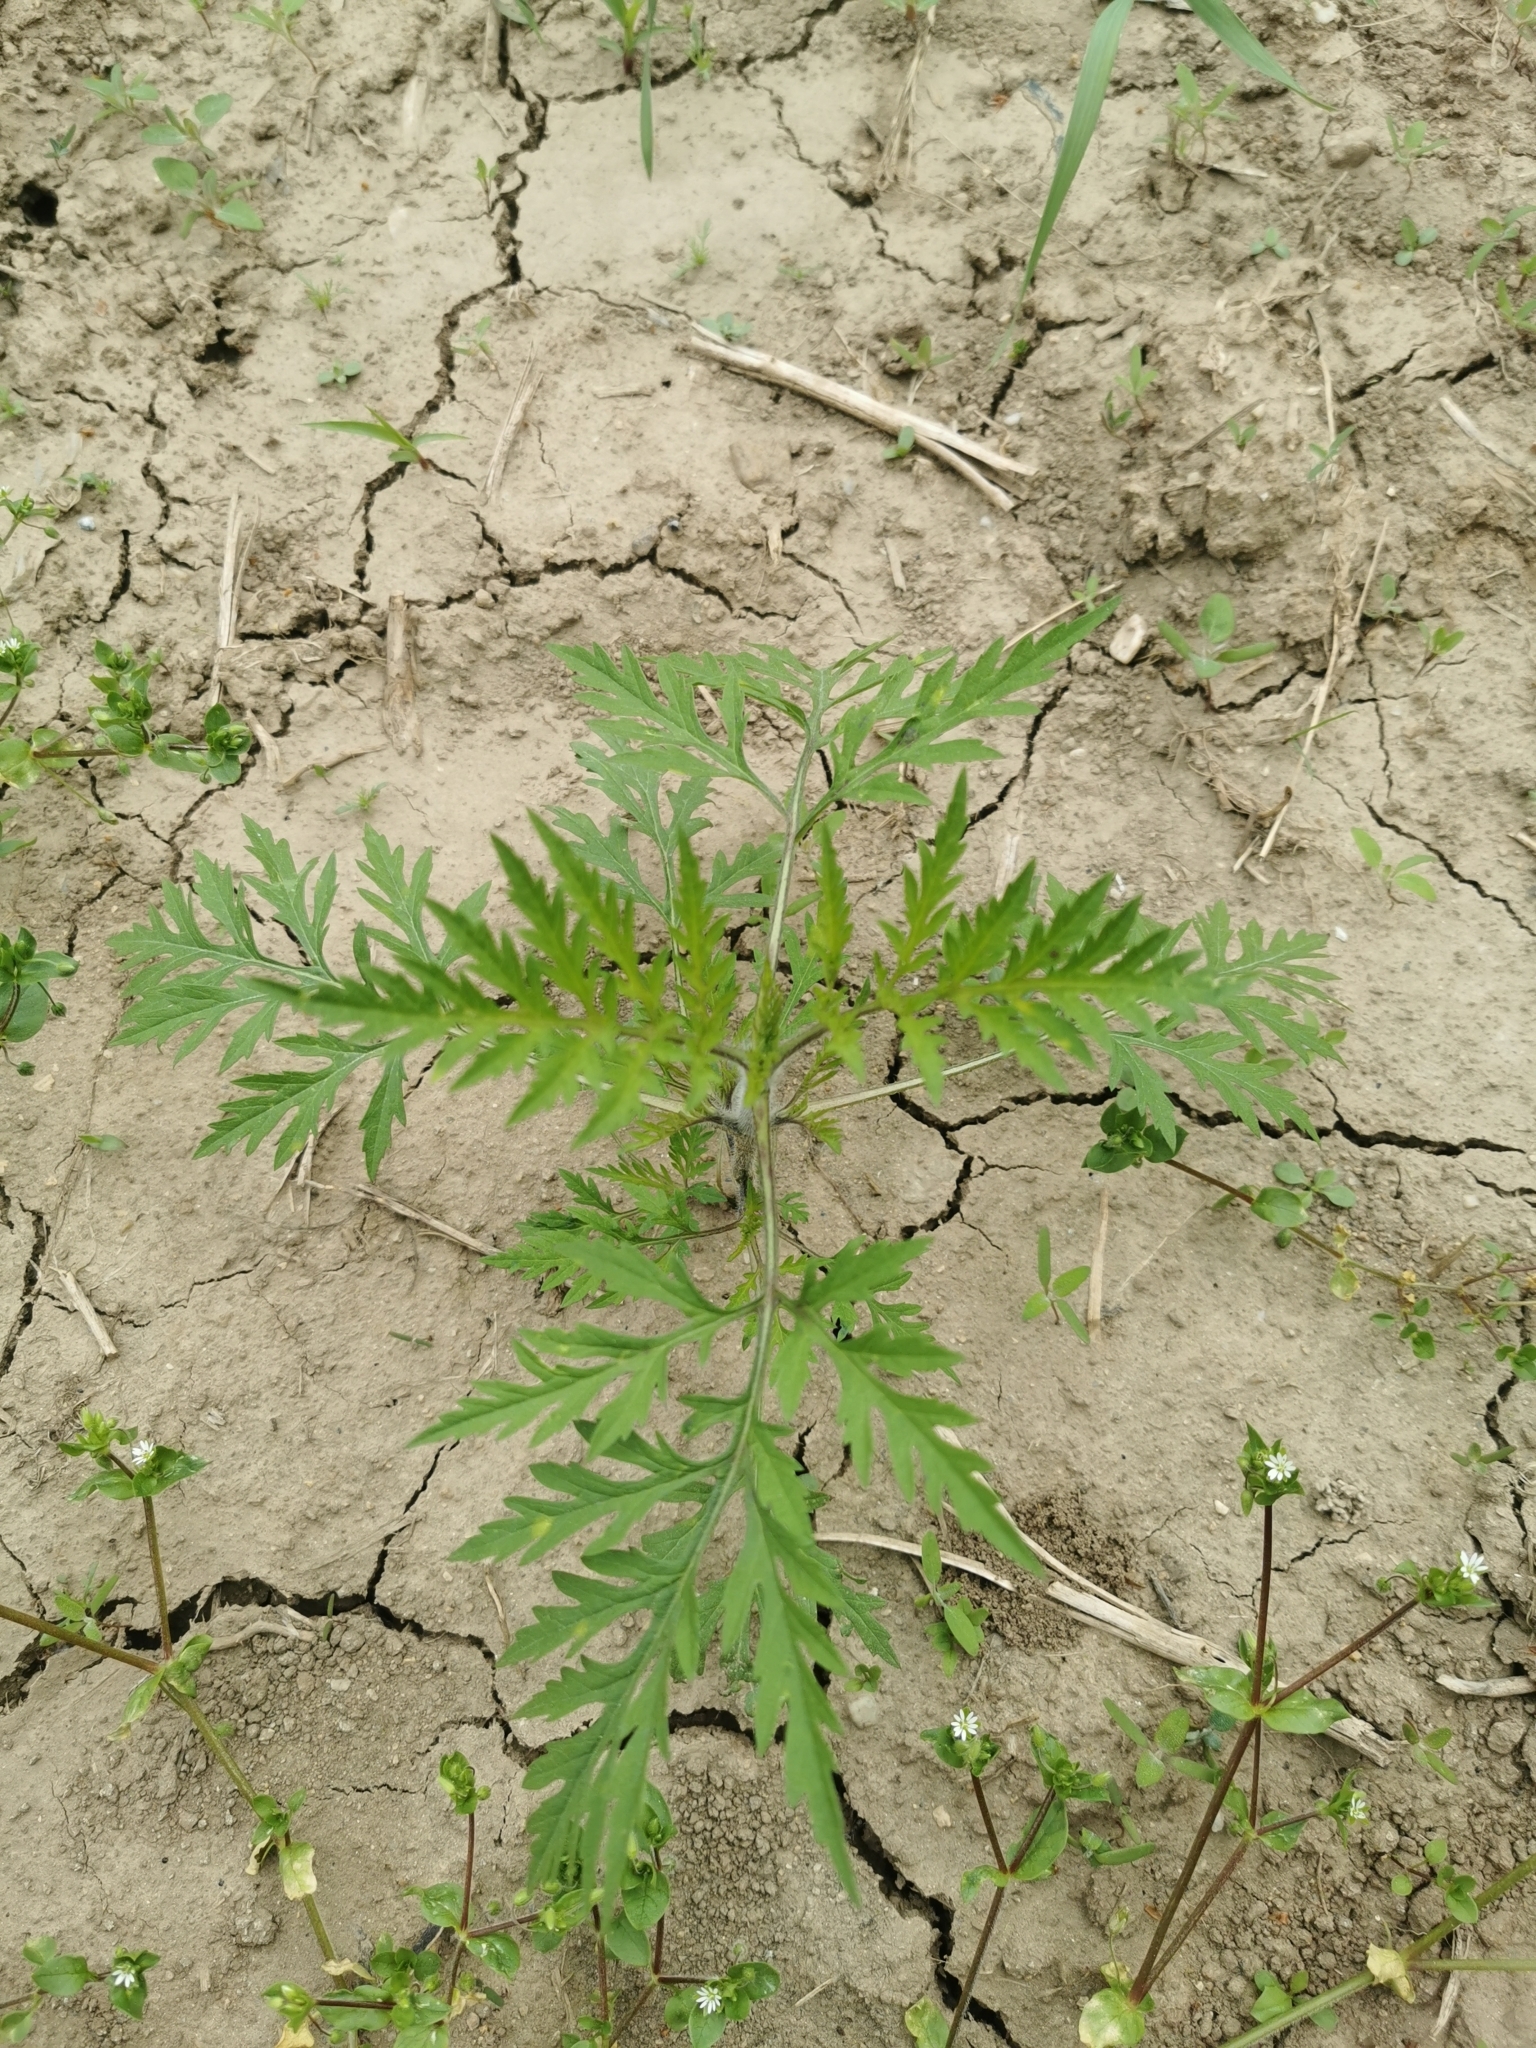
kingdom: Plantae
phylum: Tracheophyta
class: Magnoliopsida
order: Asterales
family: Asteraceae
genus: Ambrosia
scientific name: Ambrosia artemisiifolia
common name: Annual ragweed
